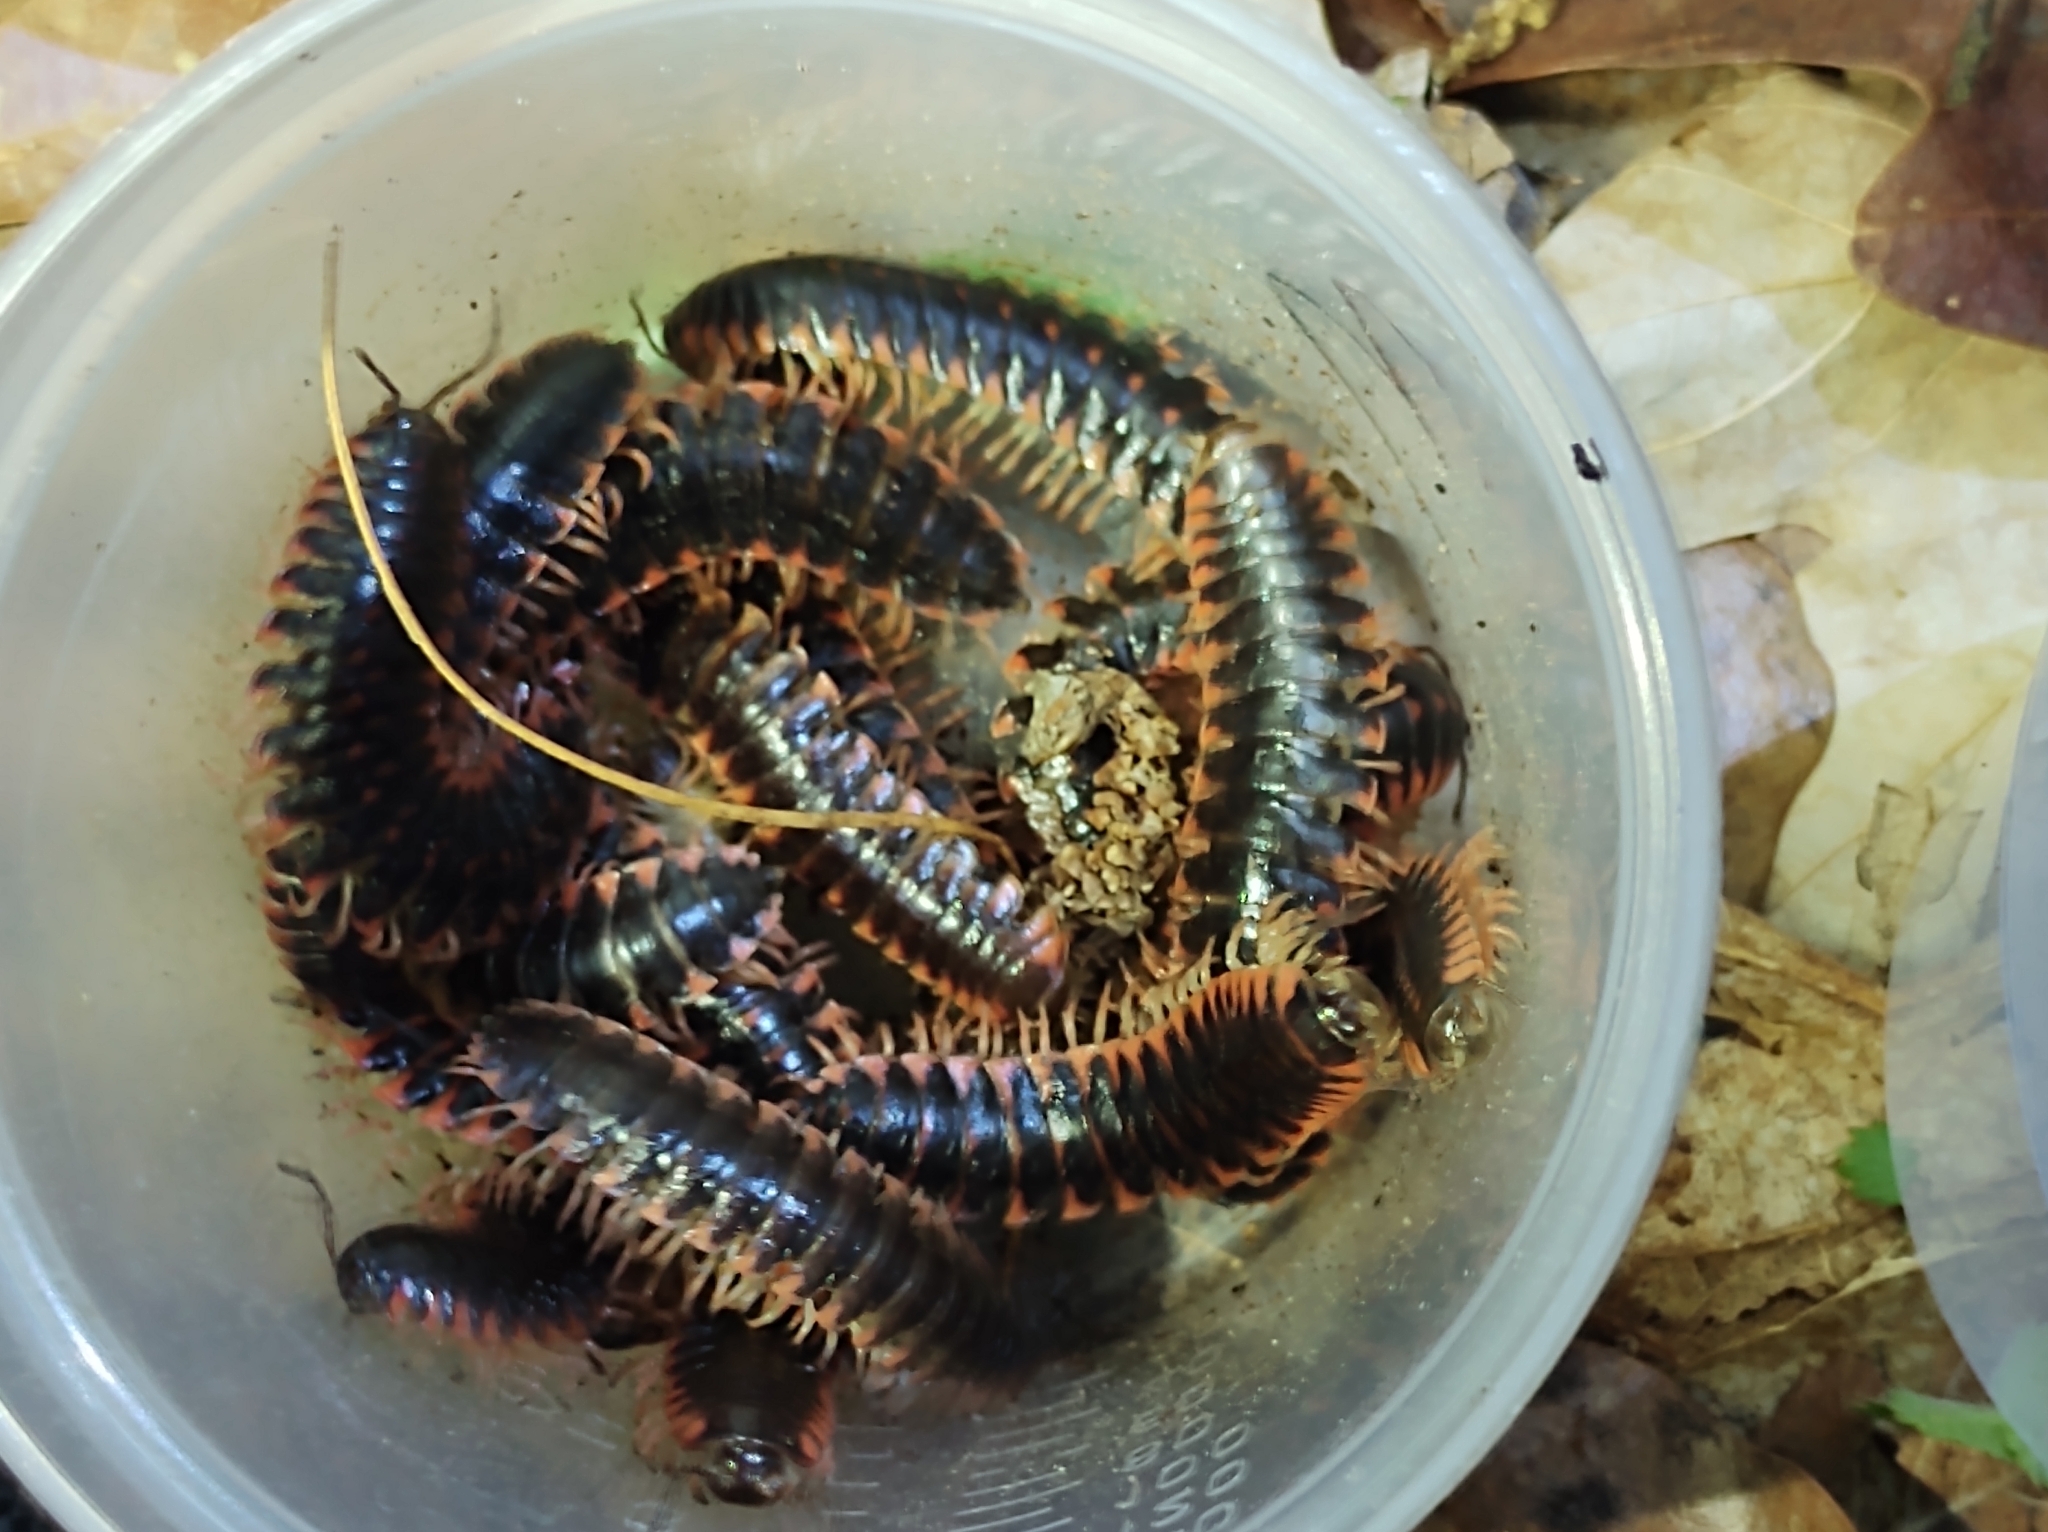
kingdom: Animalia
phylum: Arthropoda
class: Diplopoda
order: Polydesmida
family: Xystodesmidae
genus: Cherokia
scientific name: Cherokia georgiana
